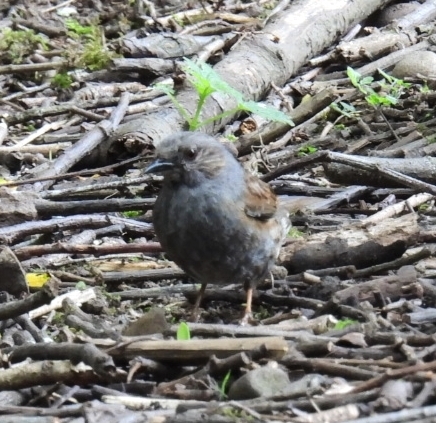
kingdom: Animalia
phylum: Chordata
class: Aves
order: Passeriformes
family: Prunellidae
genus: Prunella
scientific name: Prunella modularis
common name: Dunnock
